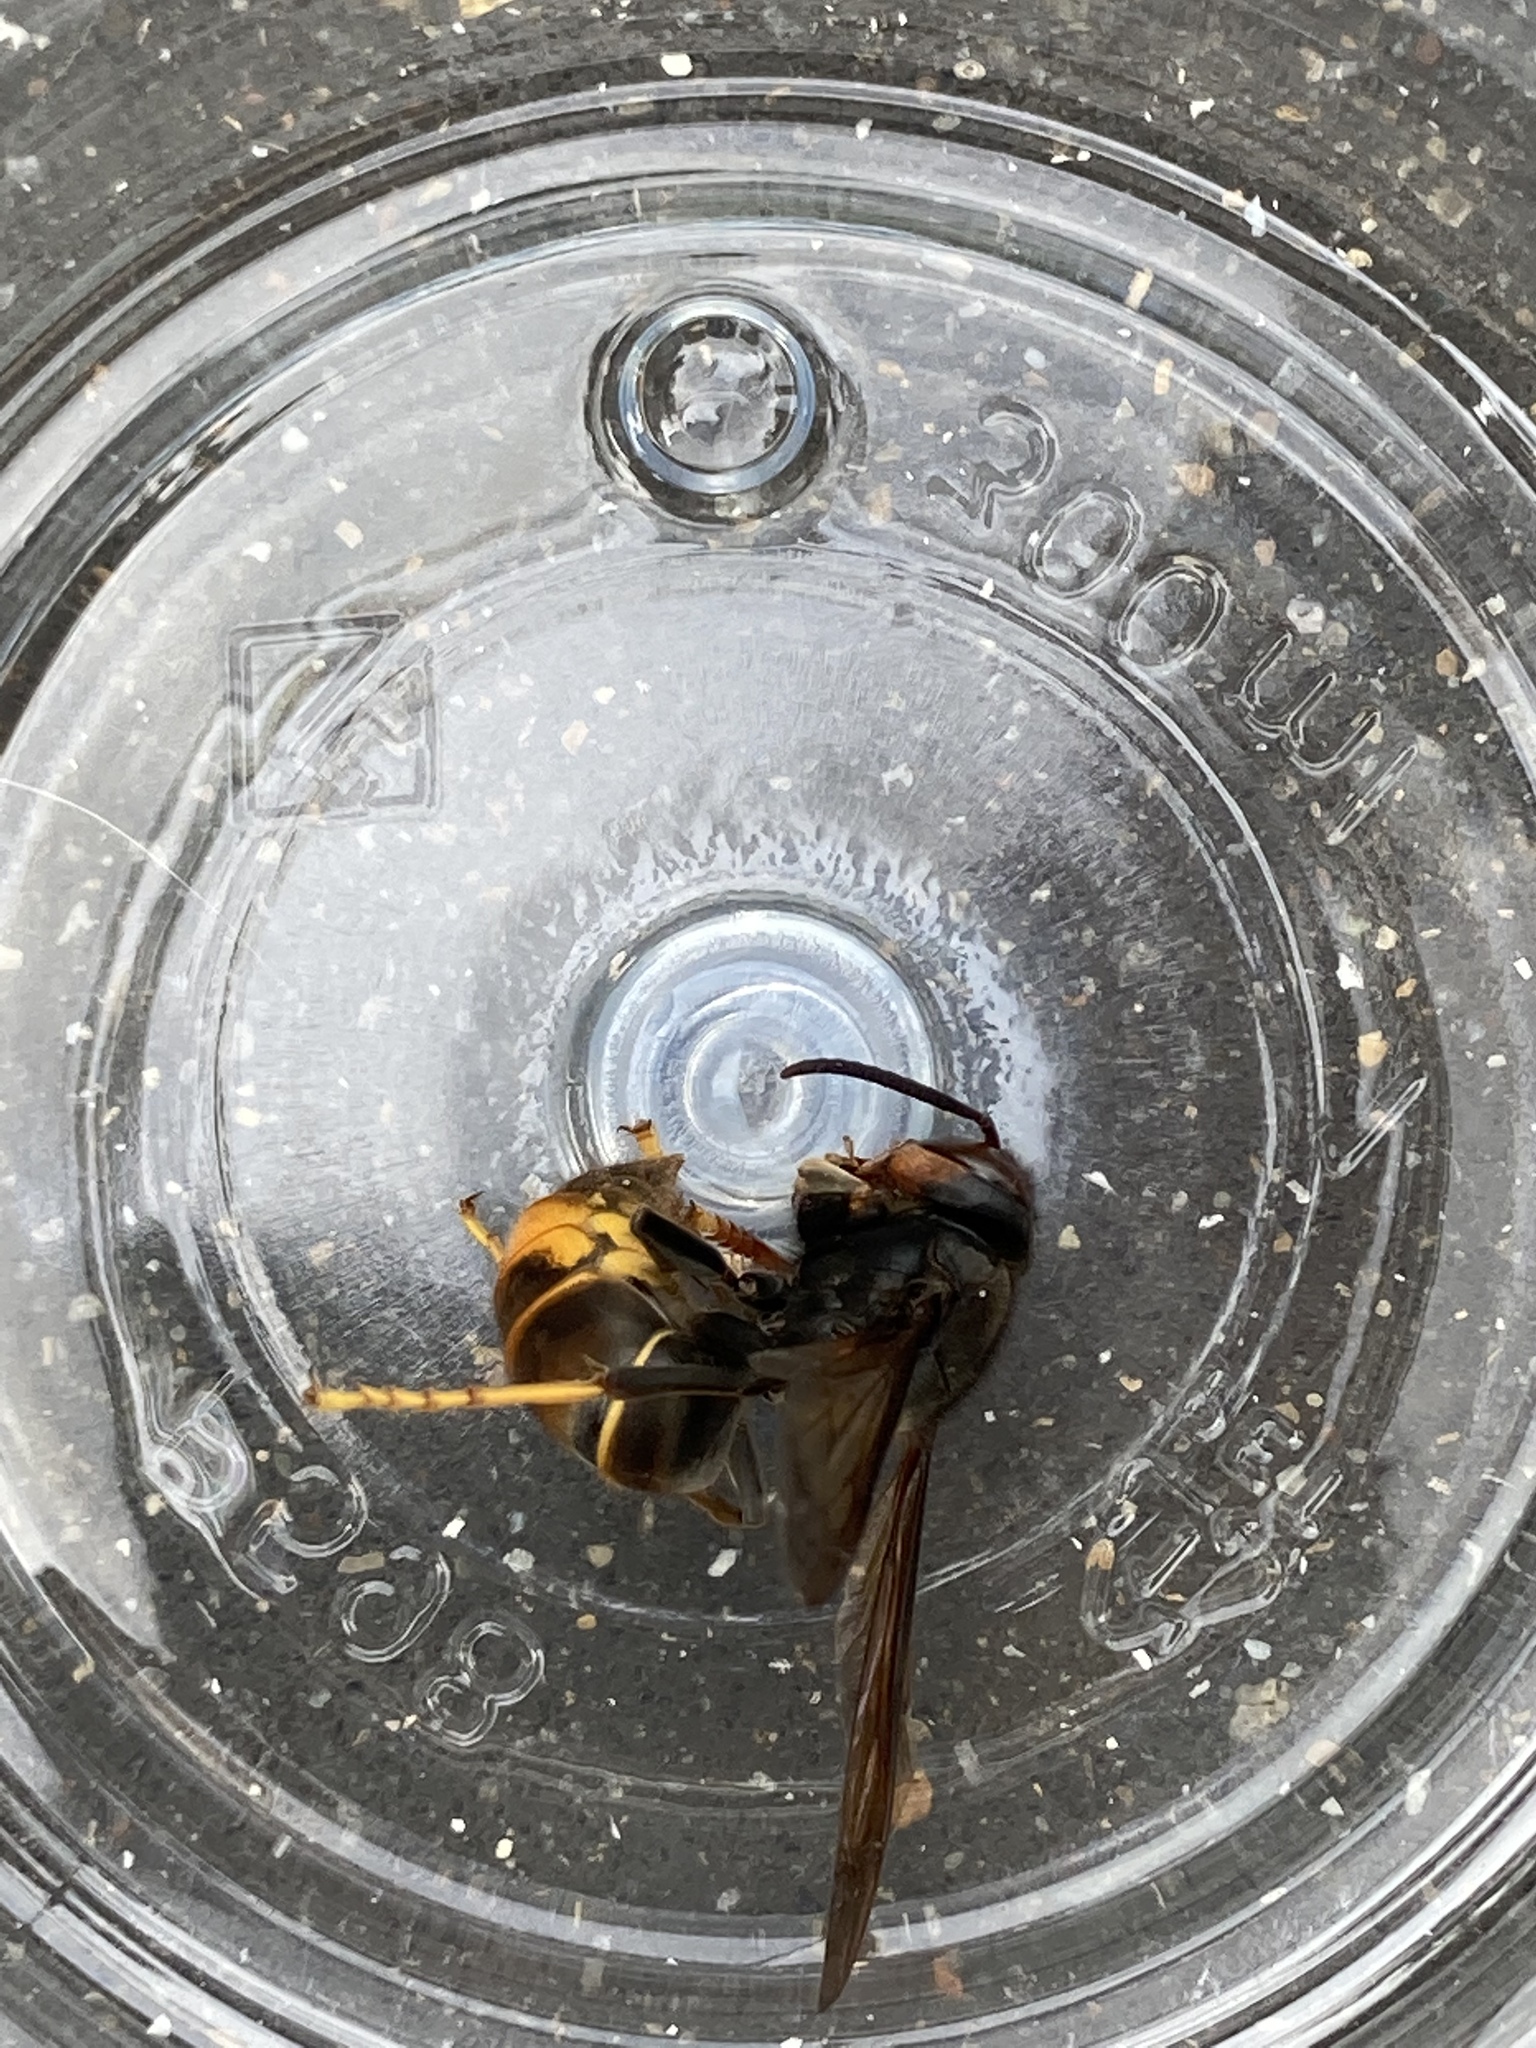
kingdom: Animalia
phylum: Arthropoda
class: Insecta
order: Hymenoptera
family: Vespidae
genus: Vespa
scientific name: Vespa velutina
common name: Asian hornet
